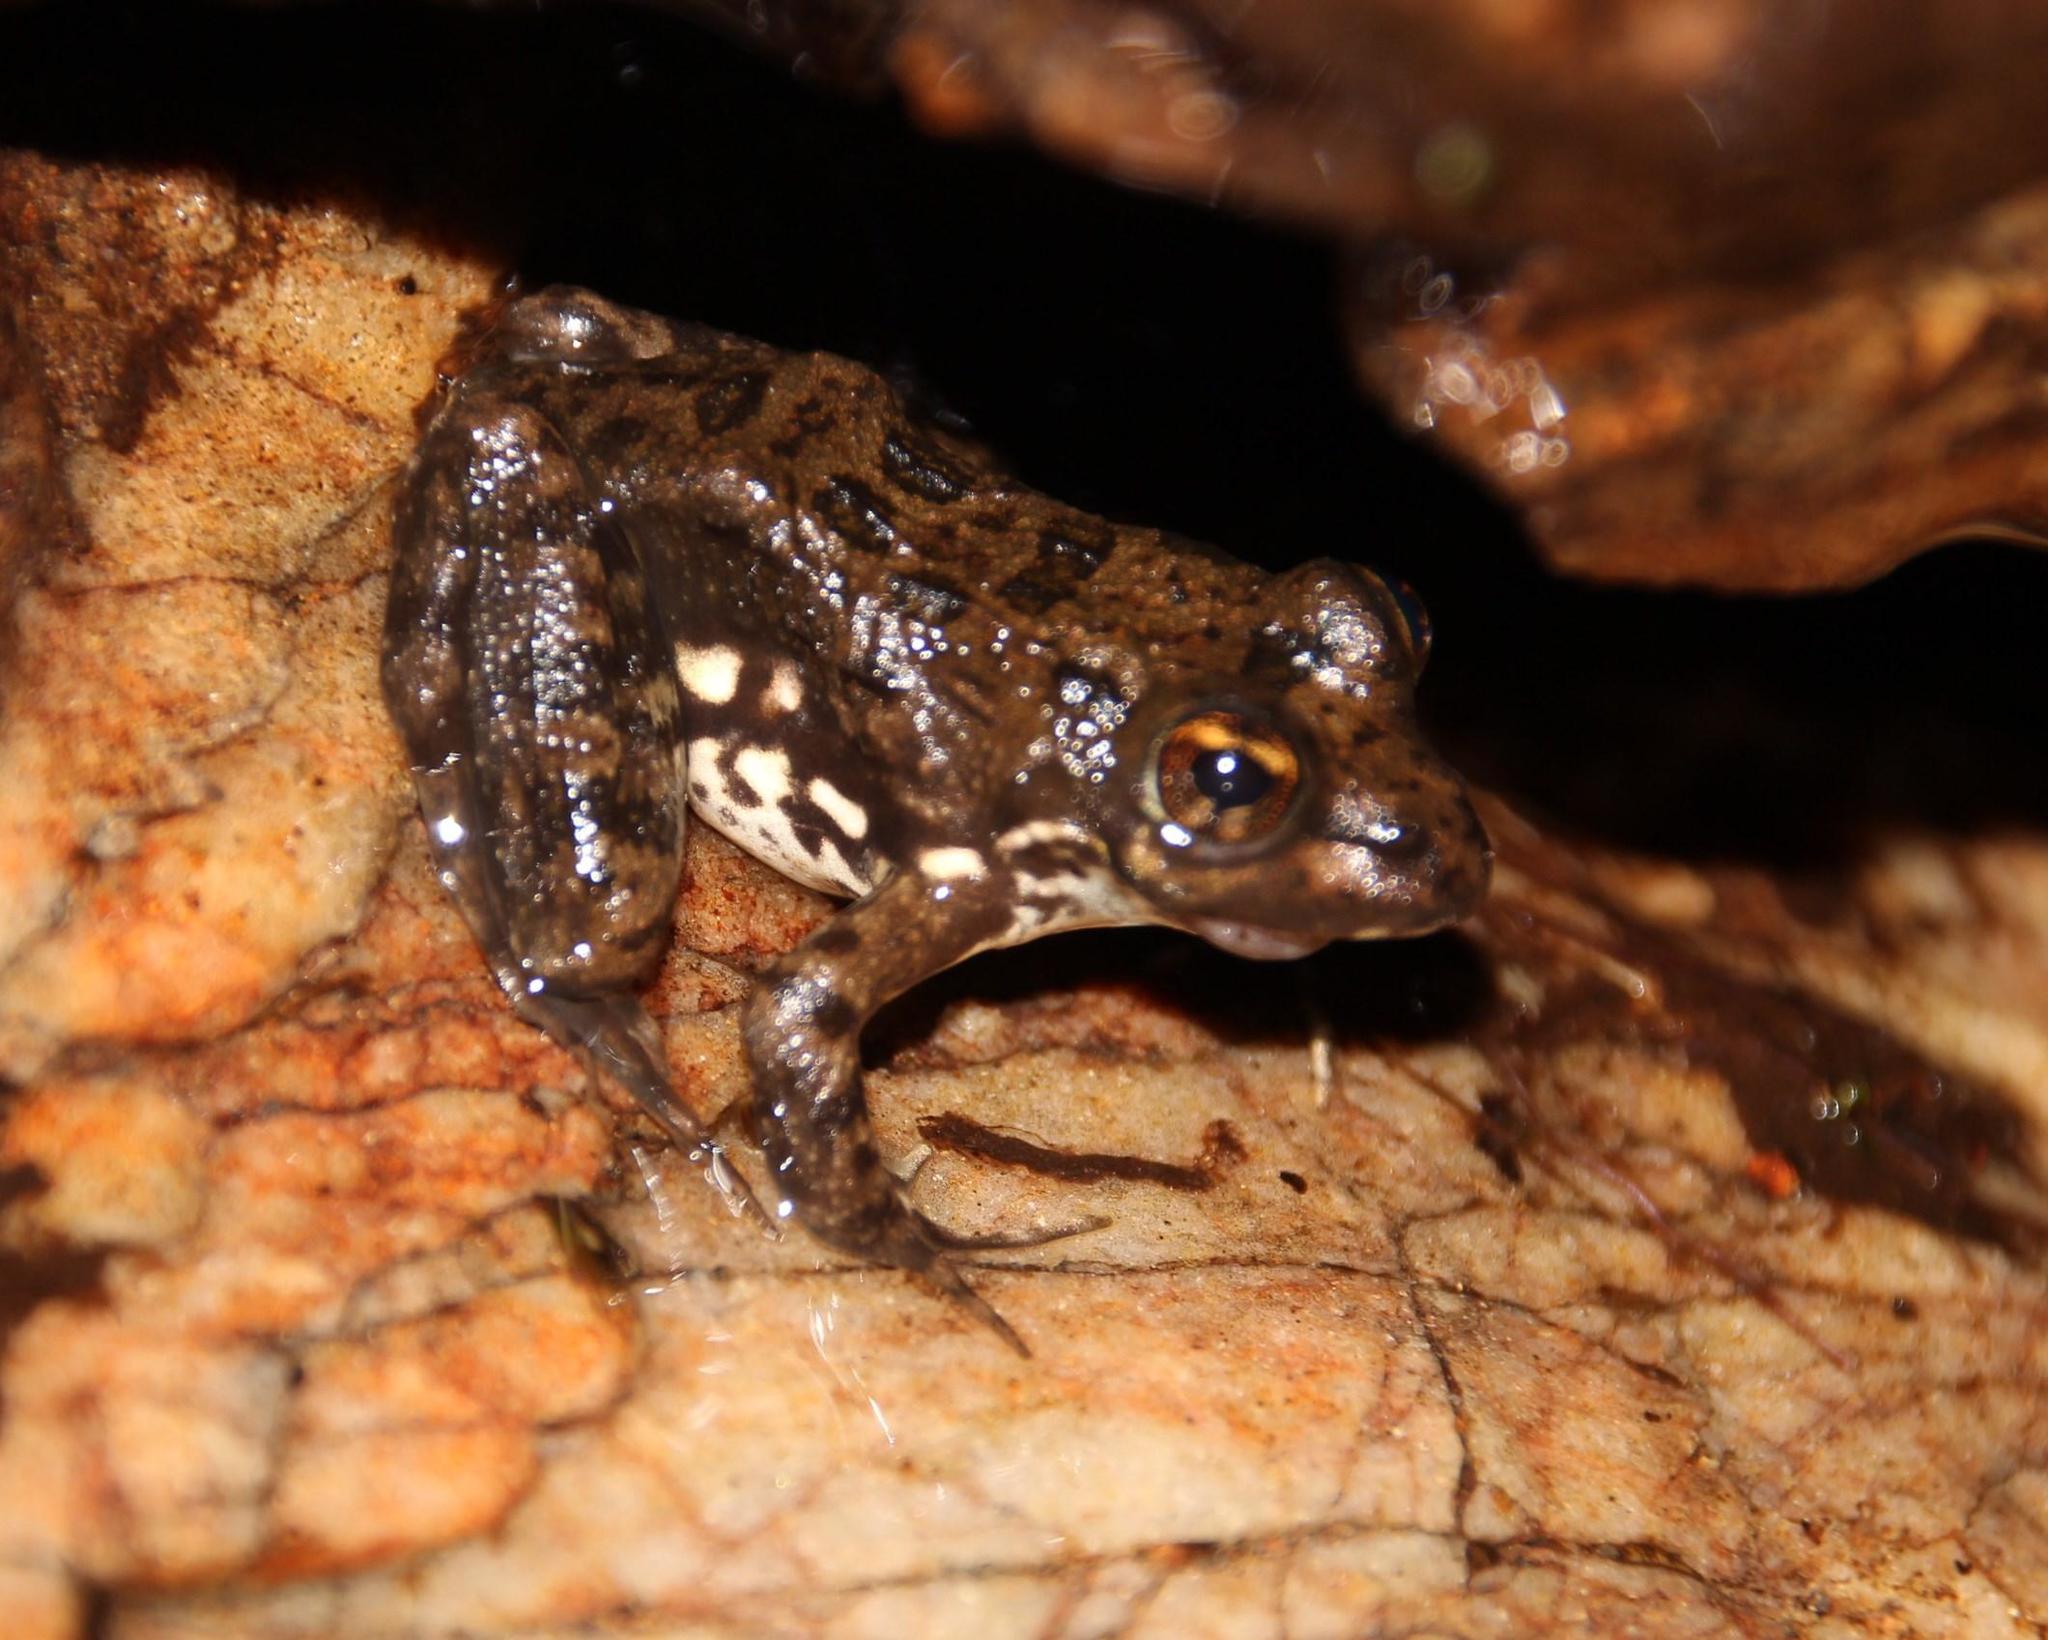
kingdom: Animalia
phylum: Chordata
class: Amphibia
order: Anura
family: Pyxicephalidae
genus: Amietia
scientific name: Amietia fuscigula
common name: Cape rana
